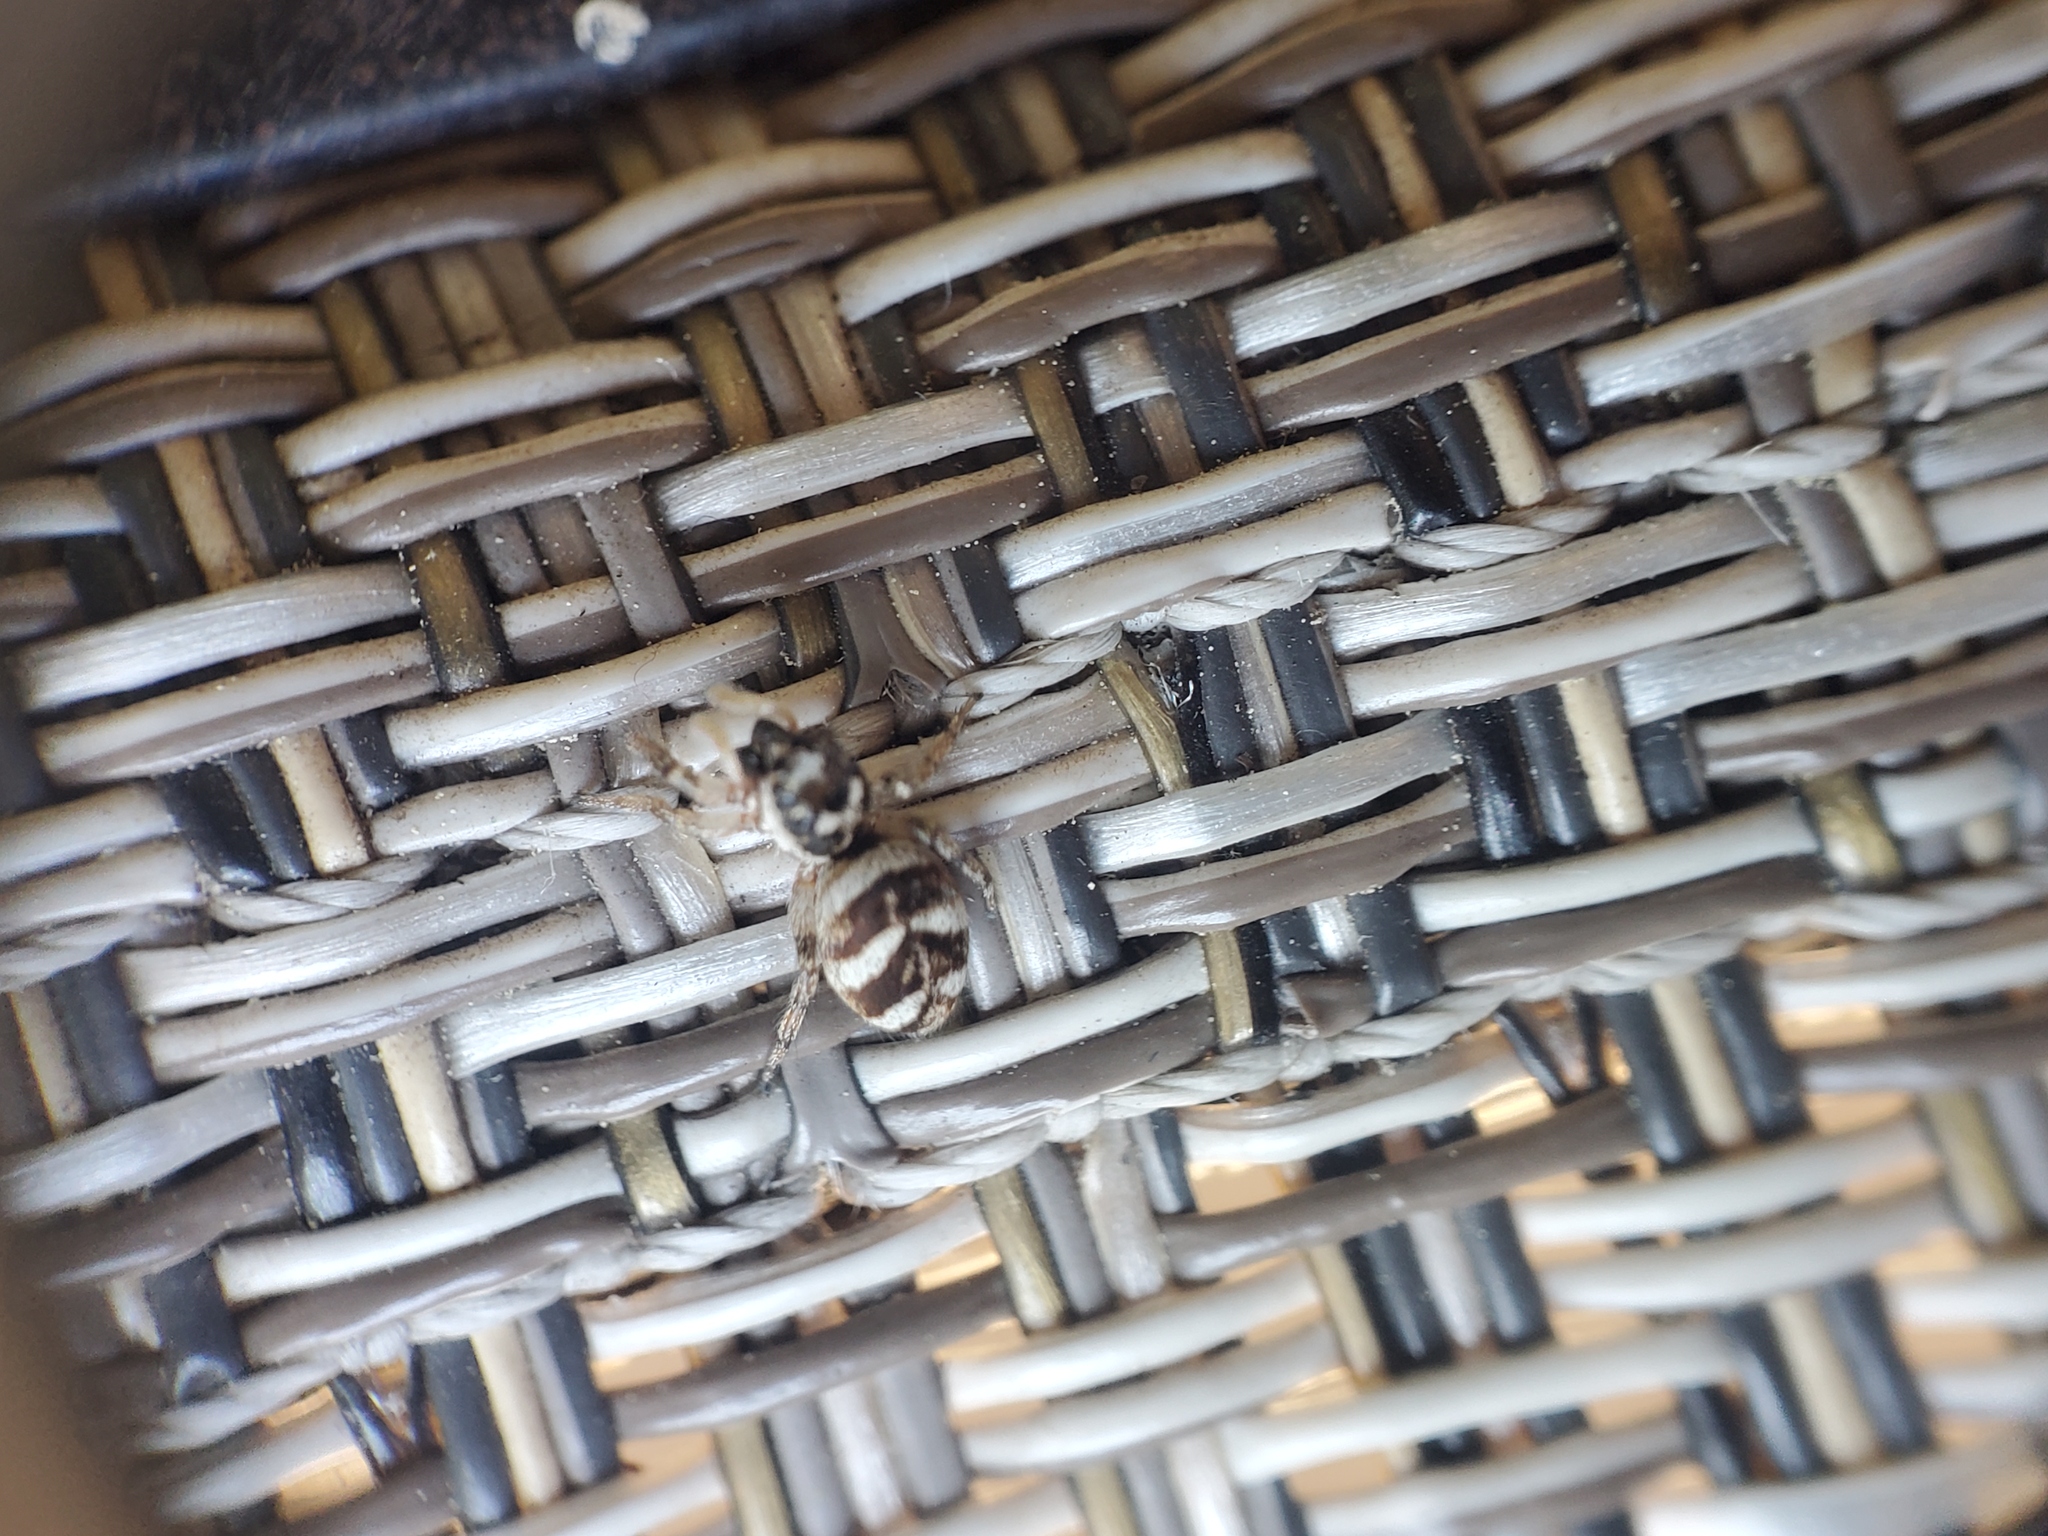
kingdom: Animalia
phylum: Arthropoda
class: Arachnida
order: Araneae
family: Salticidae
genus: Salticus
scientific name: Salticus scenicus
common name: Zebra jumper
